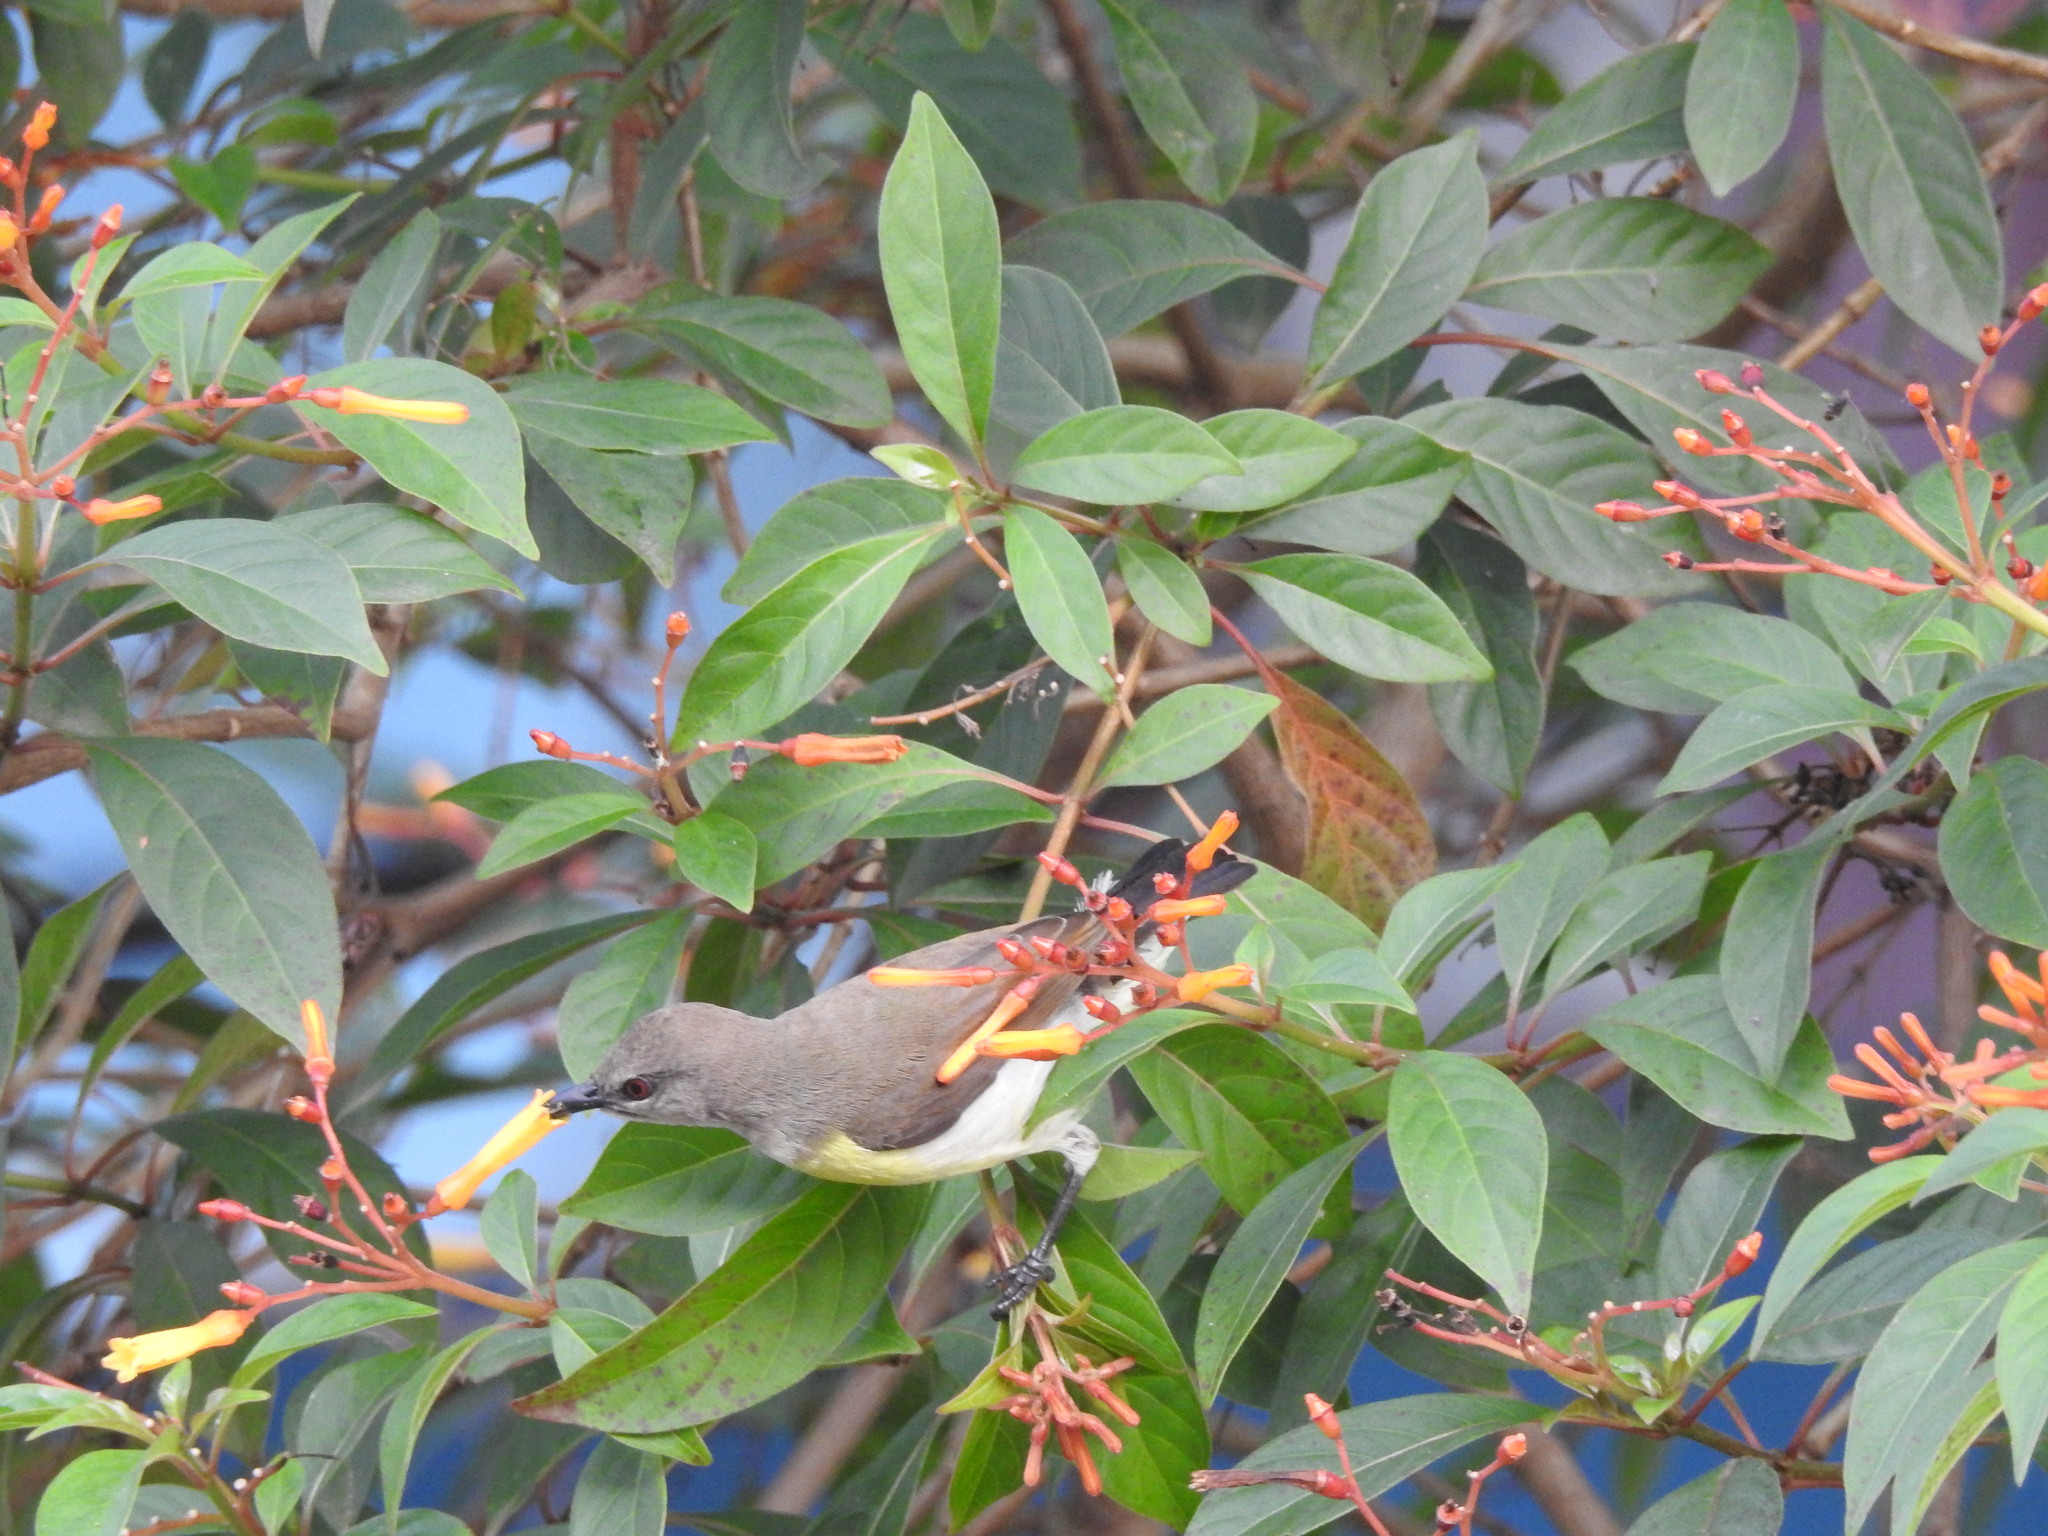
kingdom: Animalia
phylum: Chordata
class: Aves
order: Passeriformes
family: Nectariniidae
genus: Leptocoma
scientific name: Leptocoma zeylonica
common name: Purple-rumped sunbird
